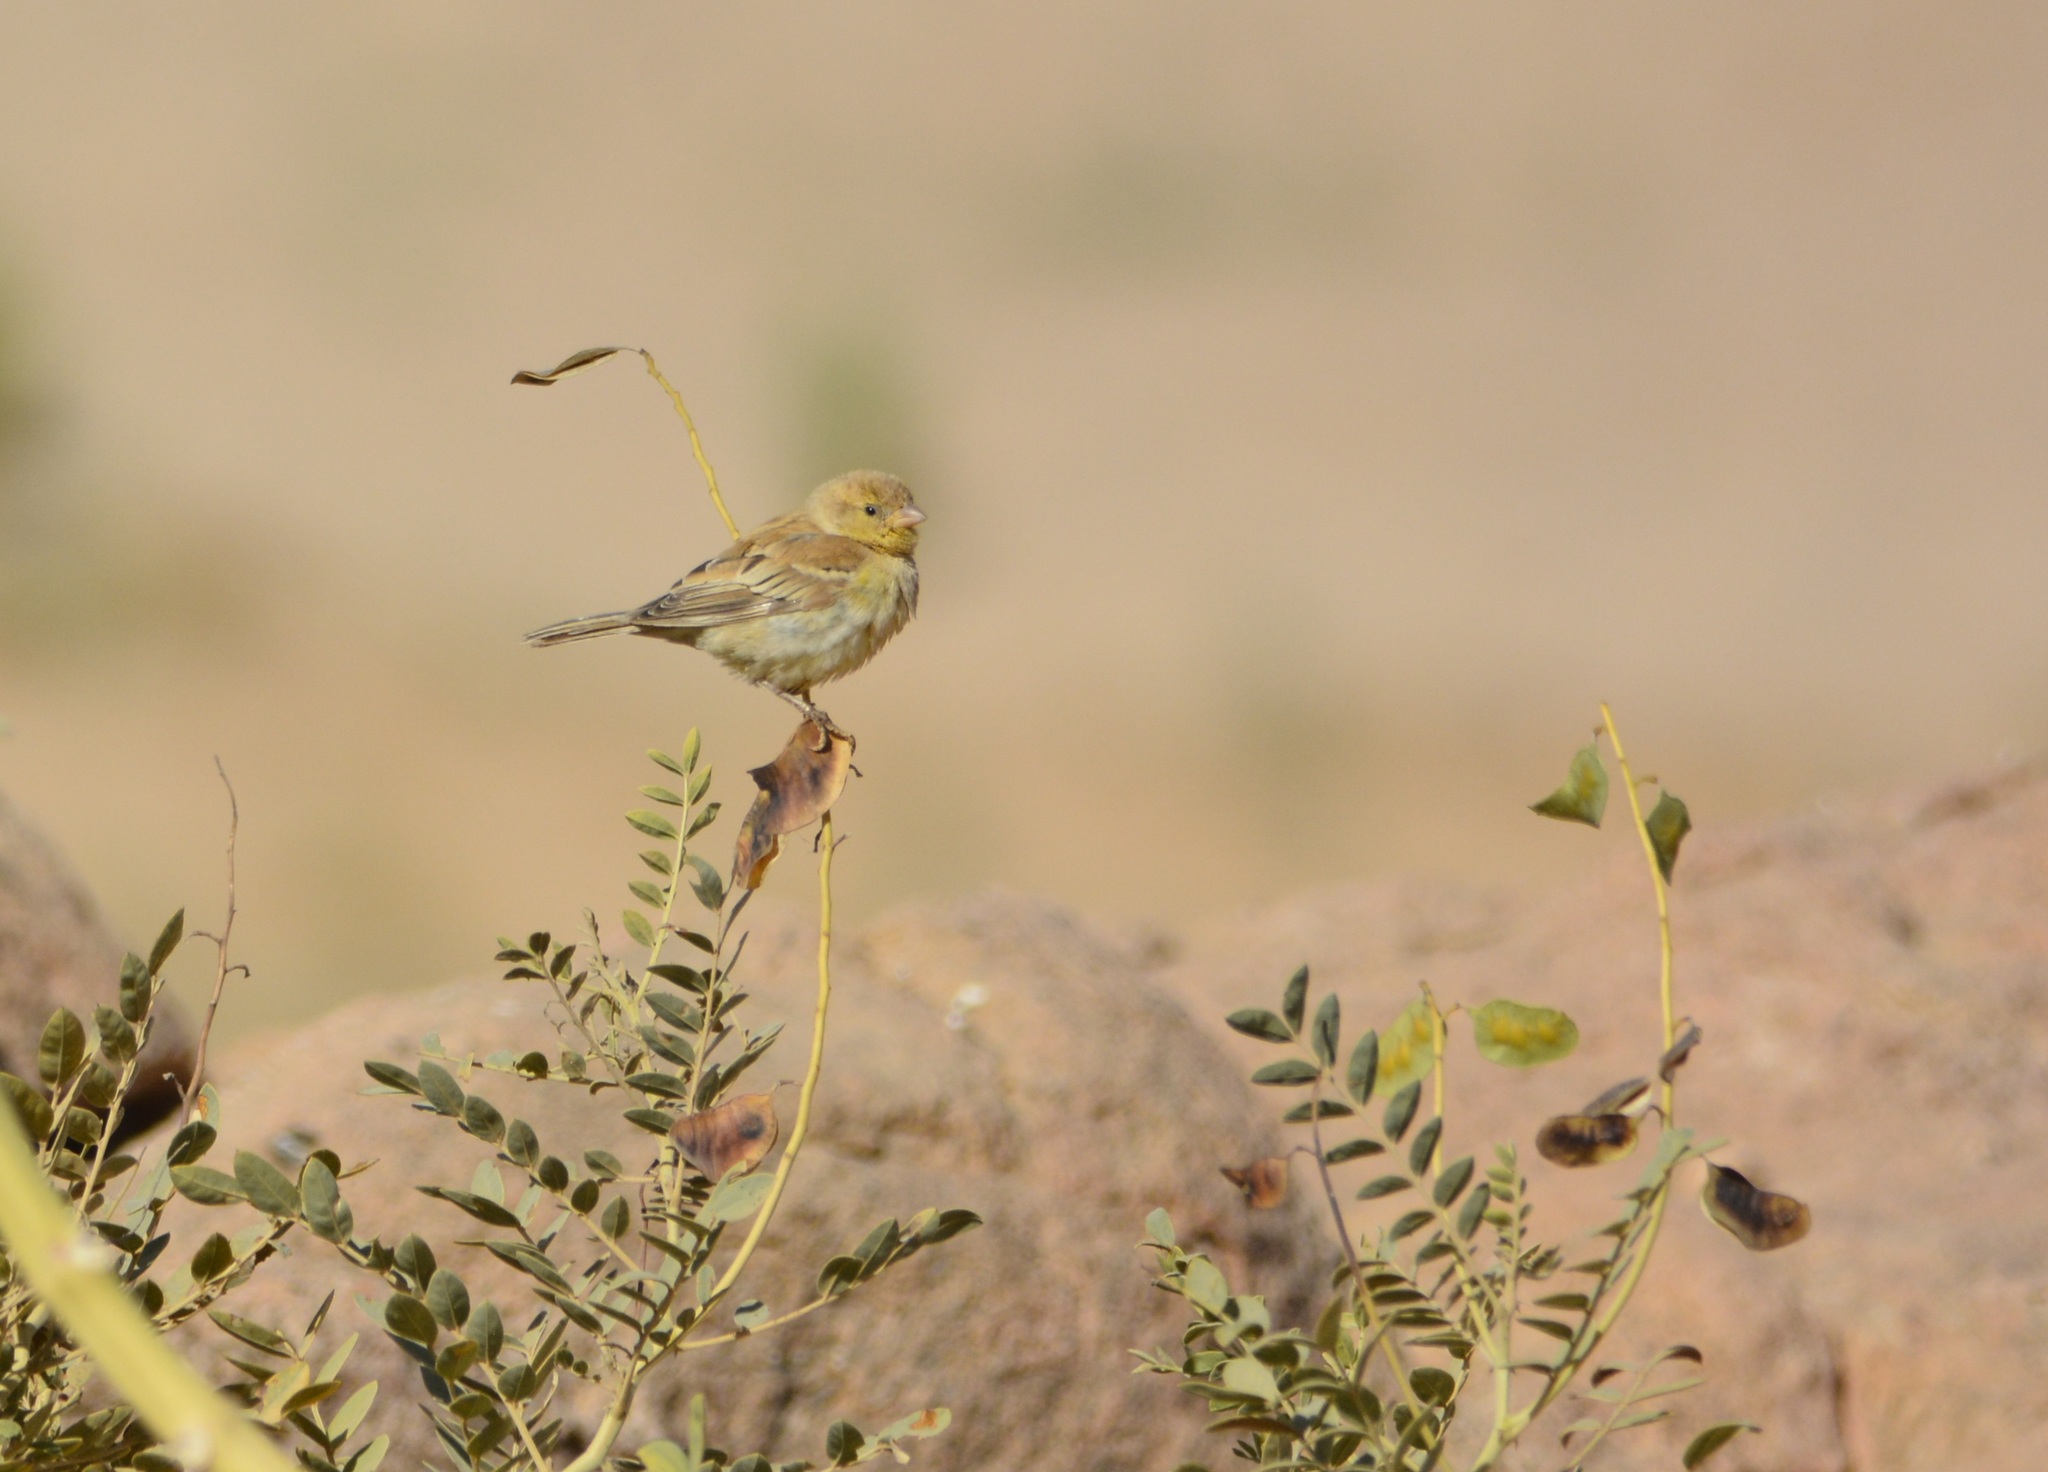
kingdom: Animalia
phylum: Chordata
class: Aves
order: Passeriformes
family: Passeridae
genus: Passer
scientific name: Passer luteus
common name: Sudan golden sparrow
